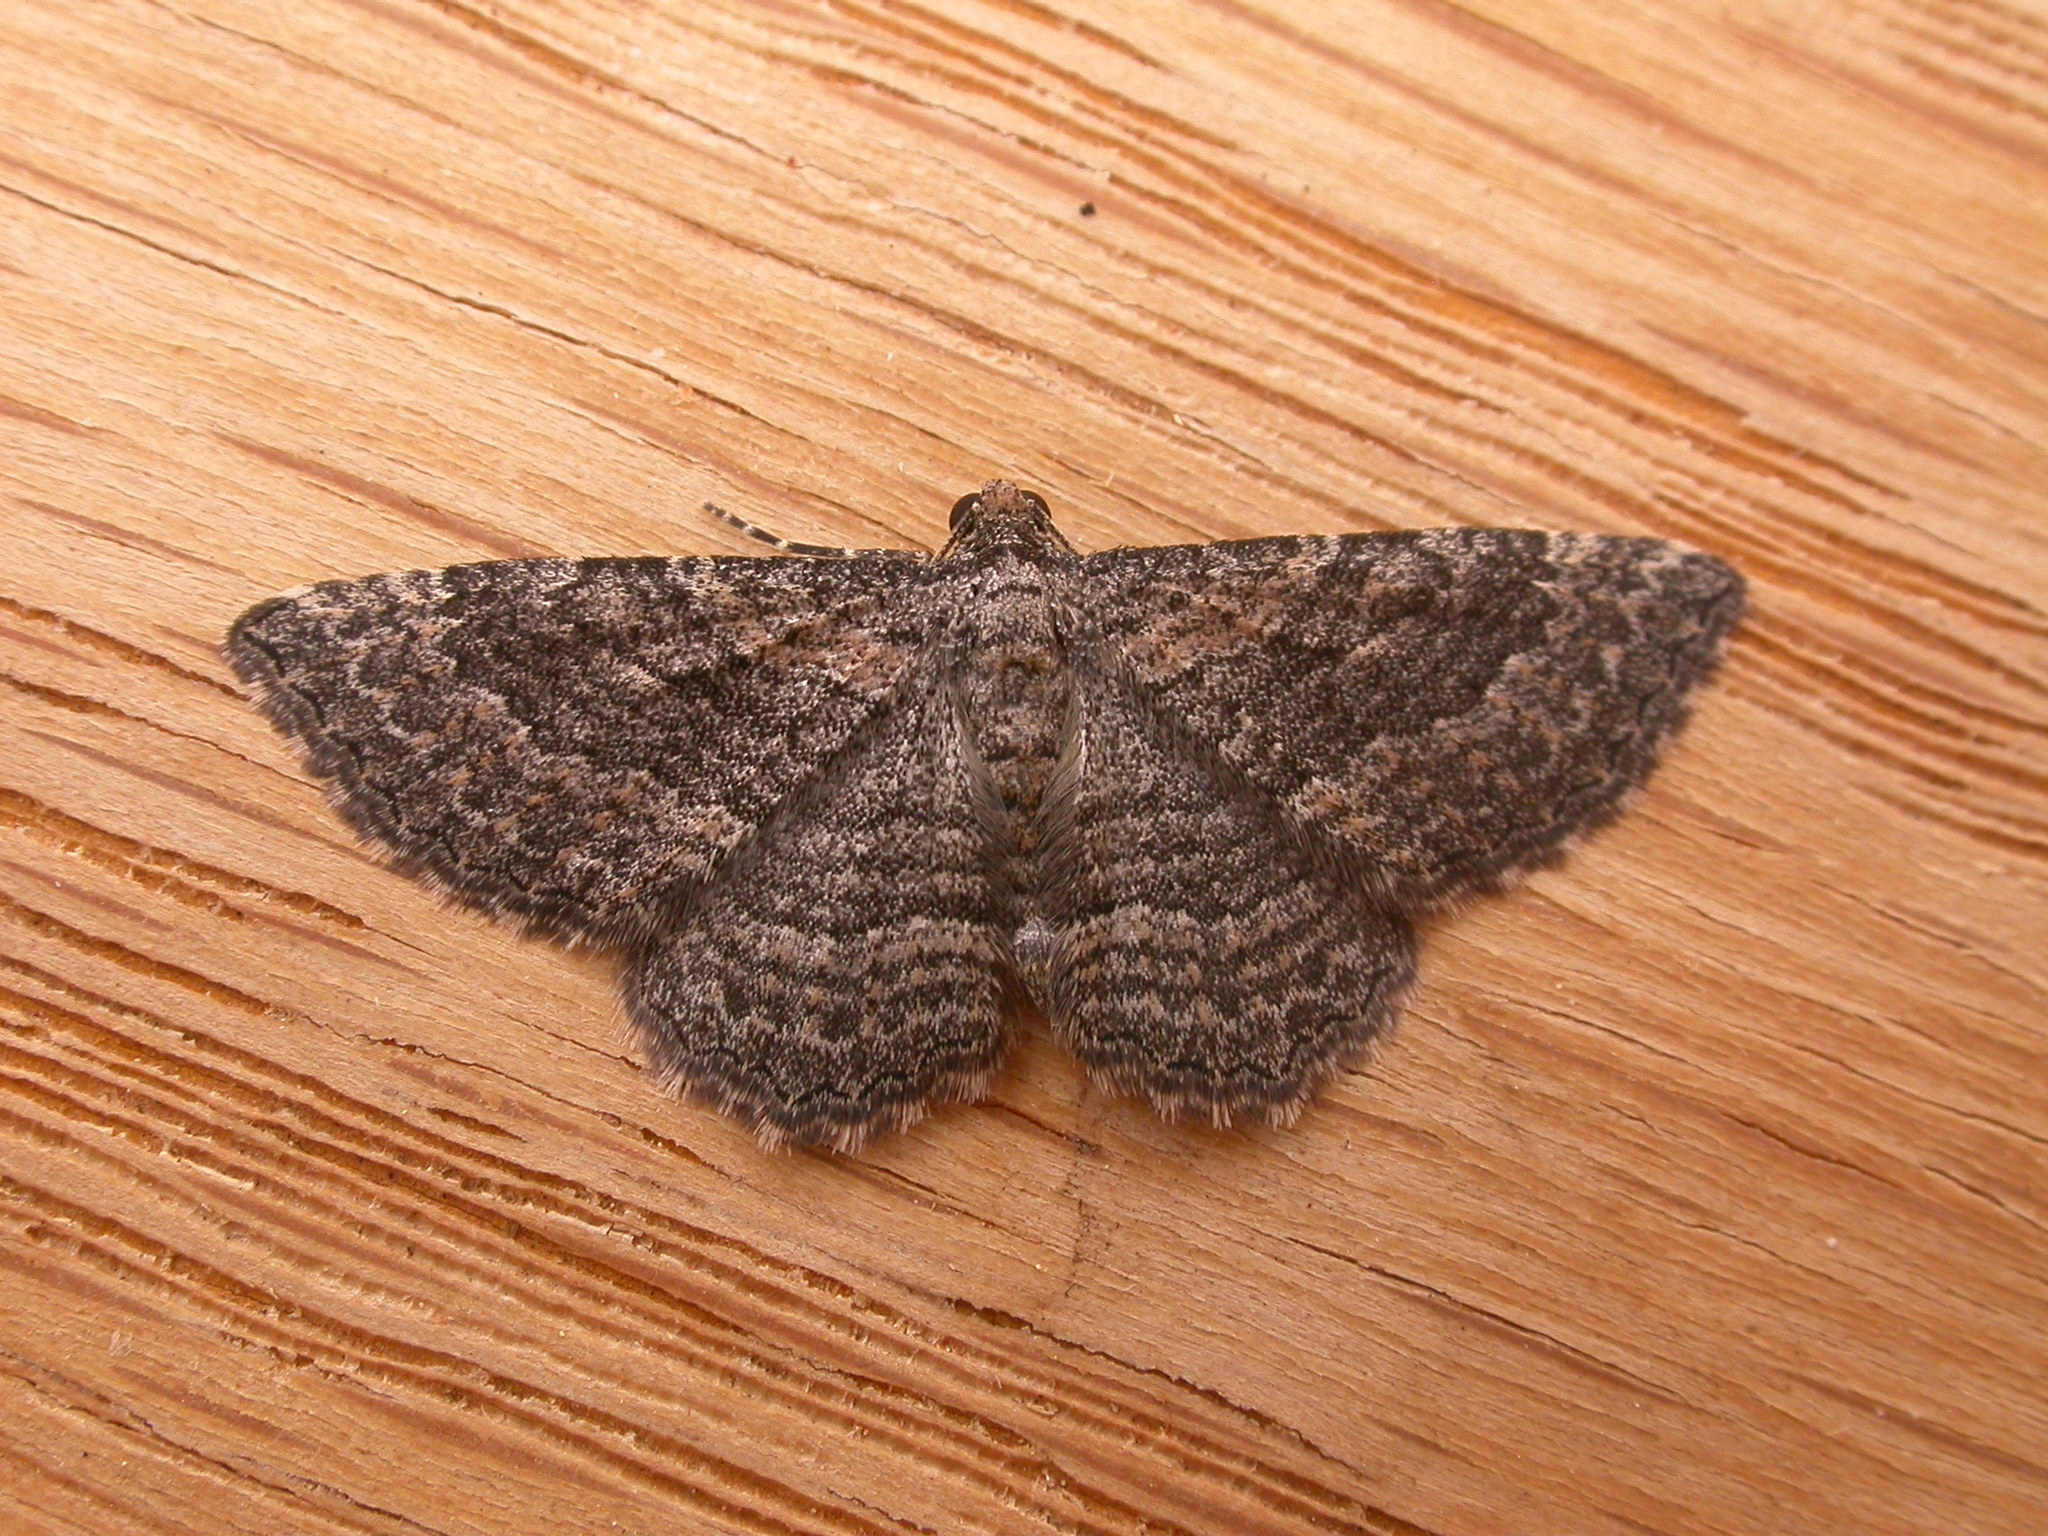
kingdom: Animalia
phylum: Arthropoda
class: Insecta
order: Lepidoptera
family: Geometridae
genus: Chrysolarentia
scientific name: Chrysolarentia squamulata
